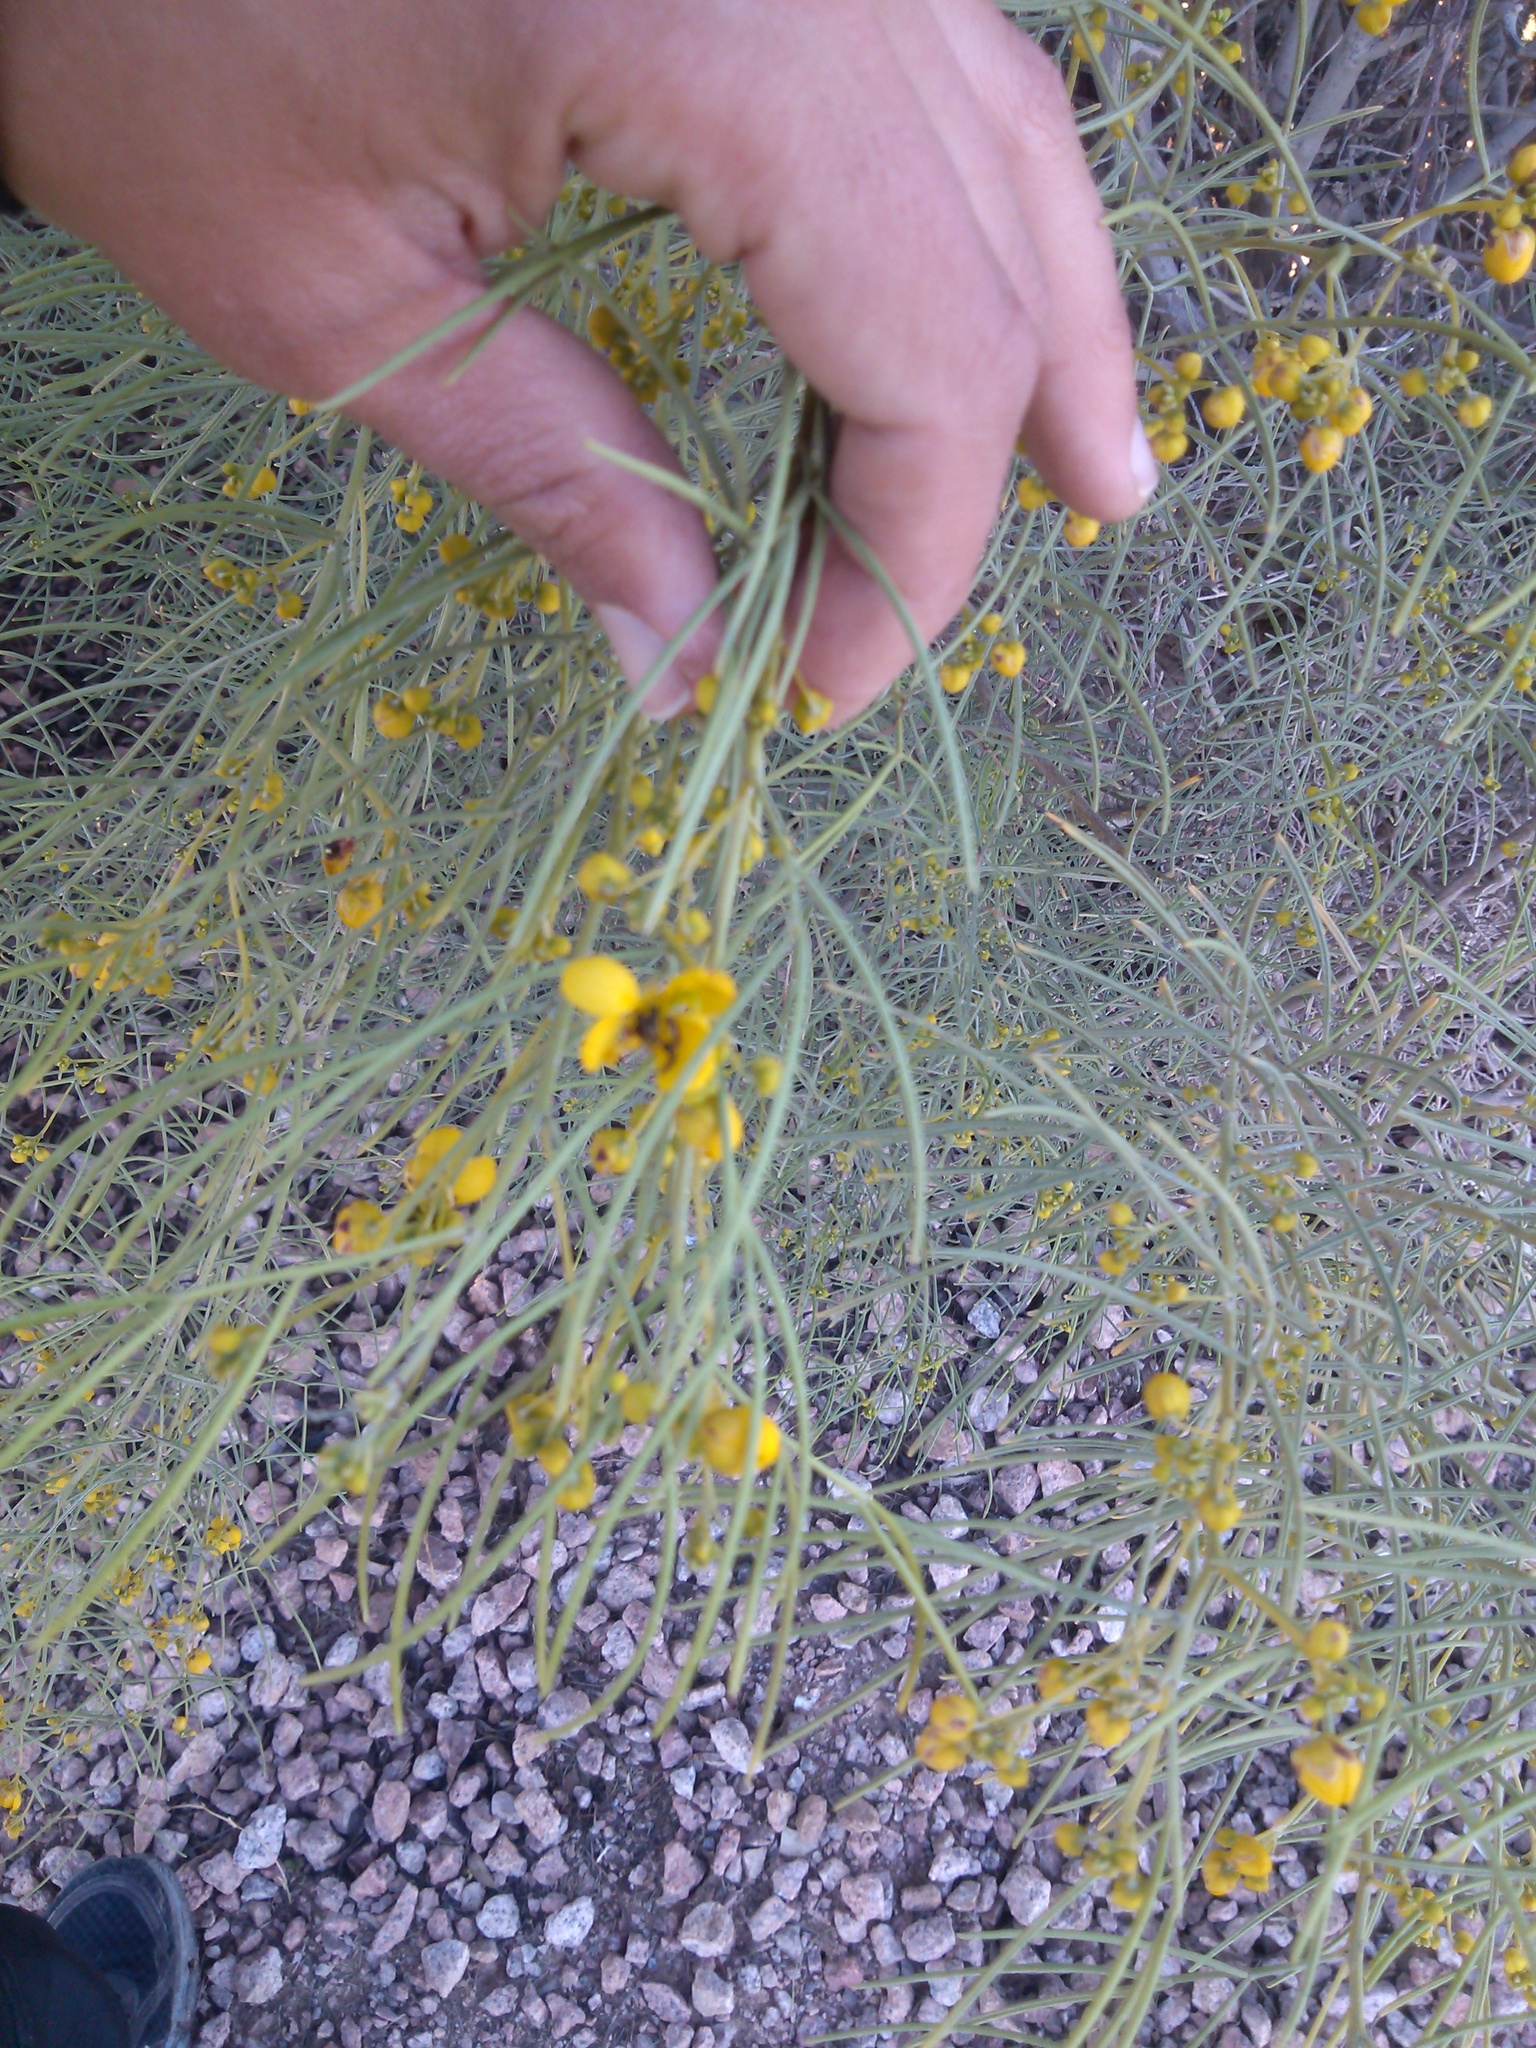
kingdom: Plantae
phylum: Tracheophyta
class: Magnoliopsida
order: Fabales
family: Fabaceae
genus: Senna
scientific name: Senna artemisioides
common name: Burnt-leaved acacia
